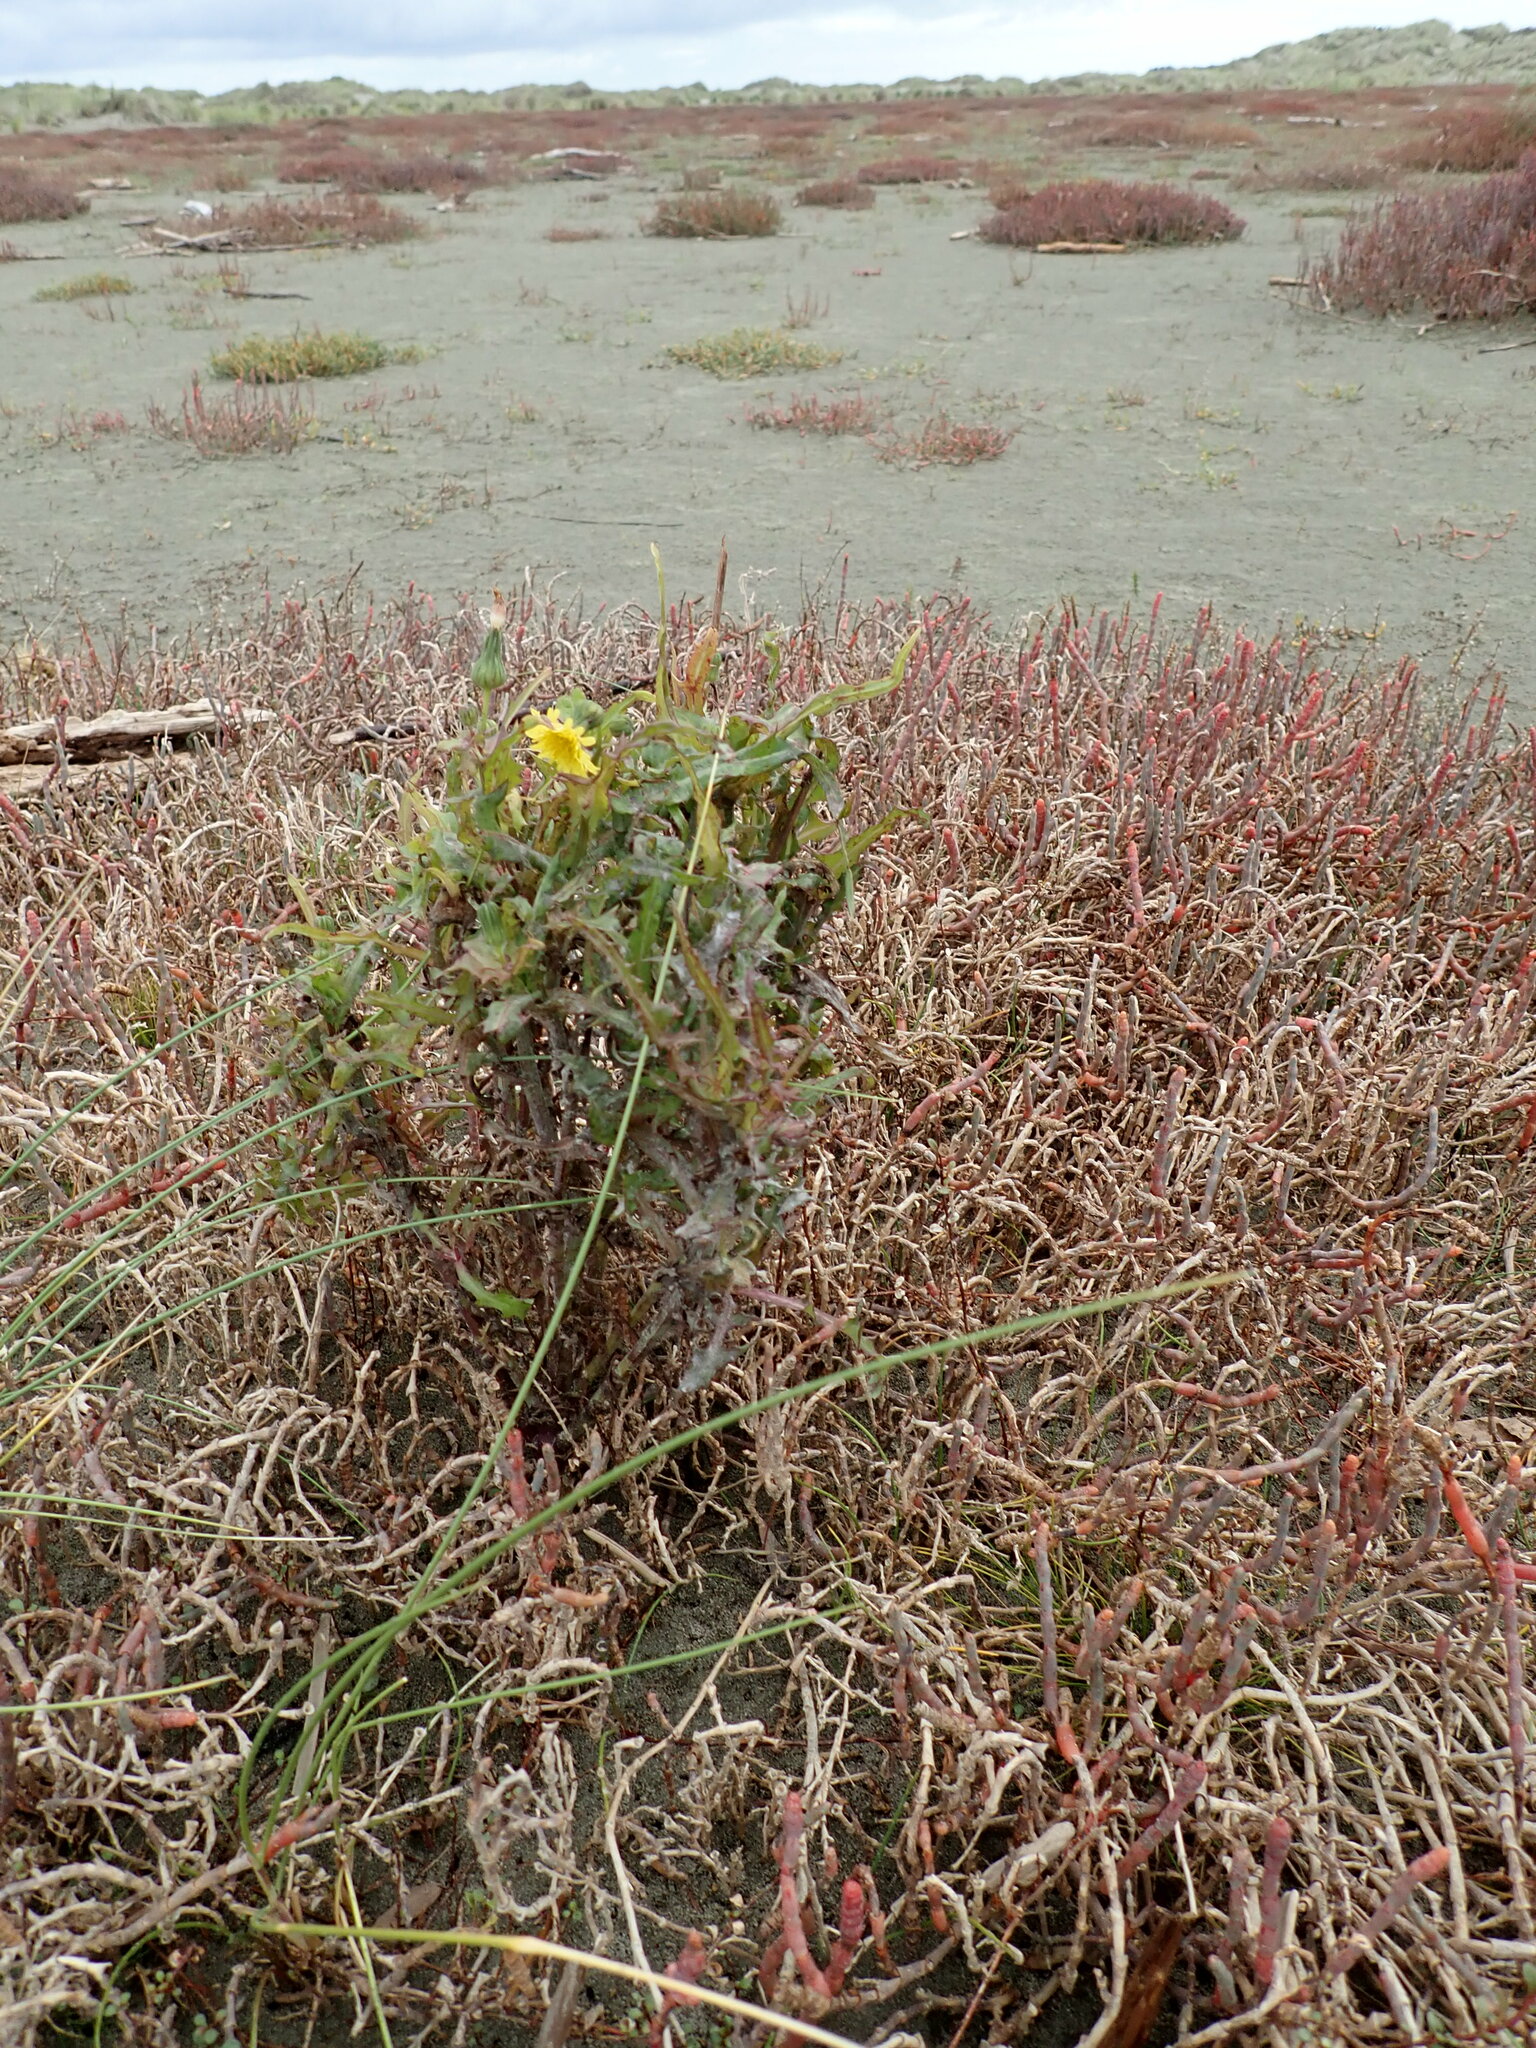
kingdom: Plantae
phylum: Tracheophyta
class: Magnoliopsida
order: Asterales
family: Asteraceae
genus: Sonchus
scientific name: Sonchus oleraceus
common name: Common sowthistle
